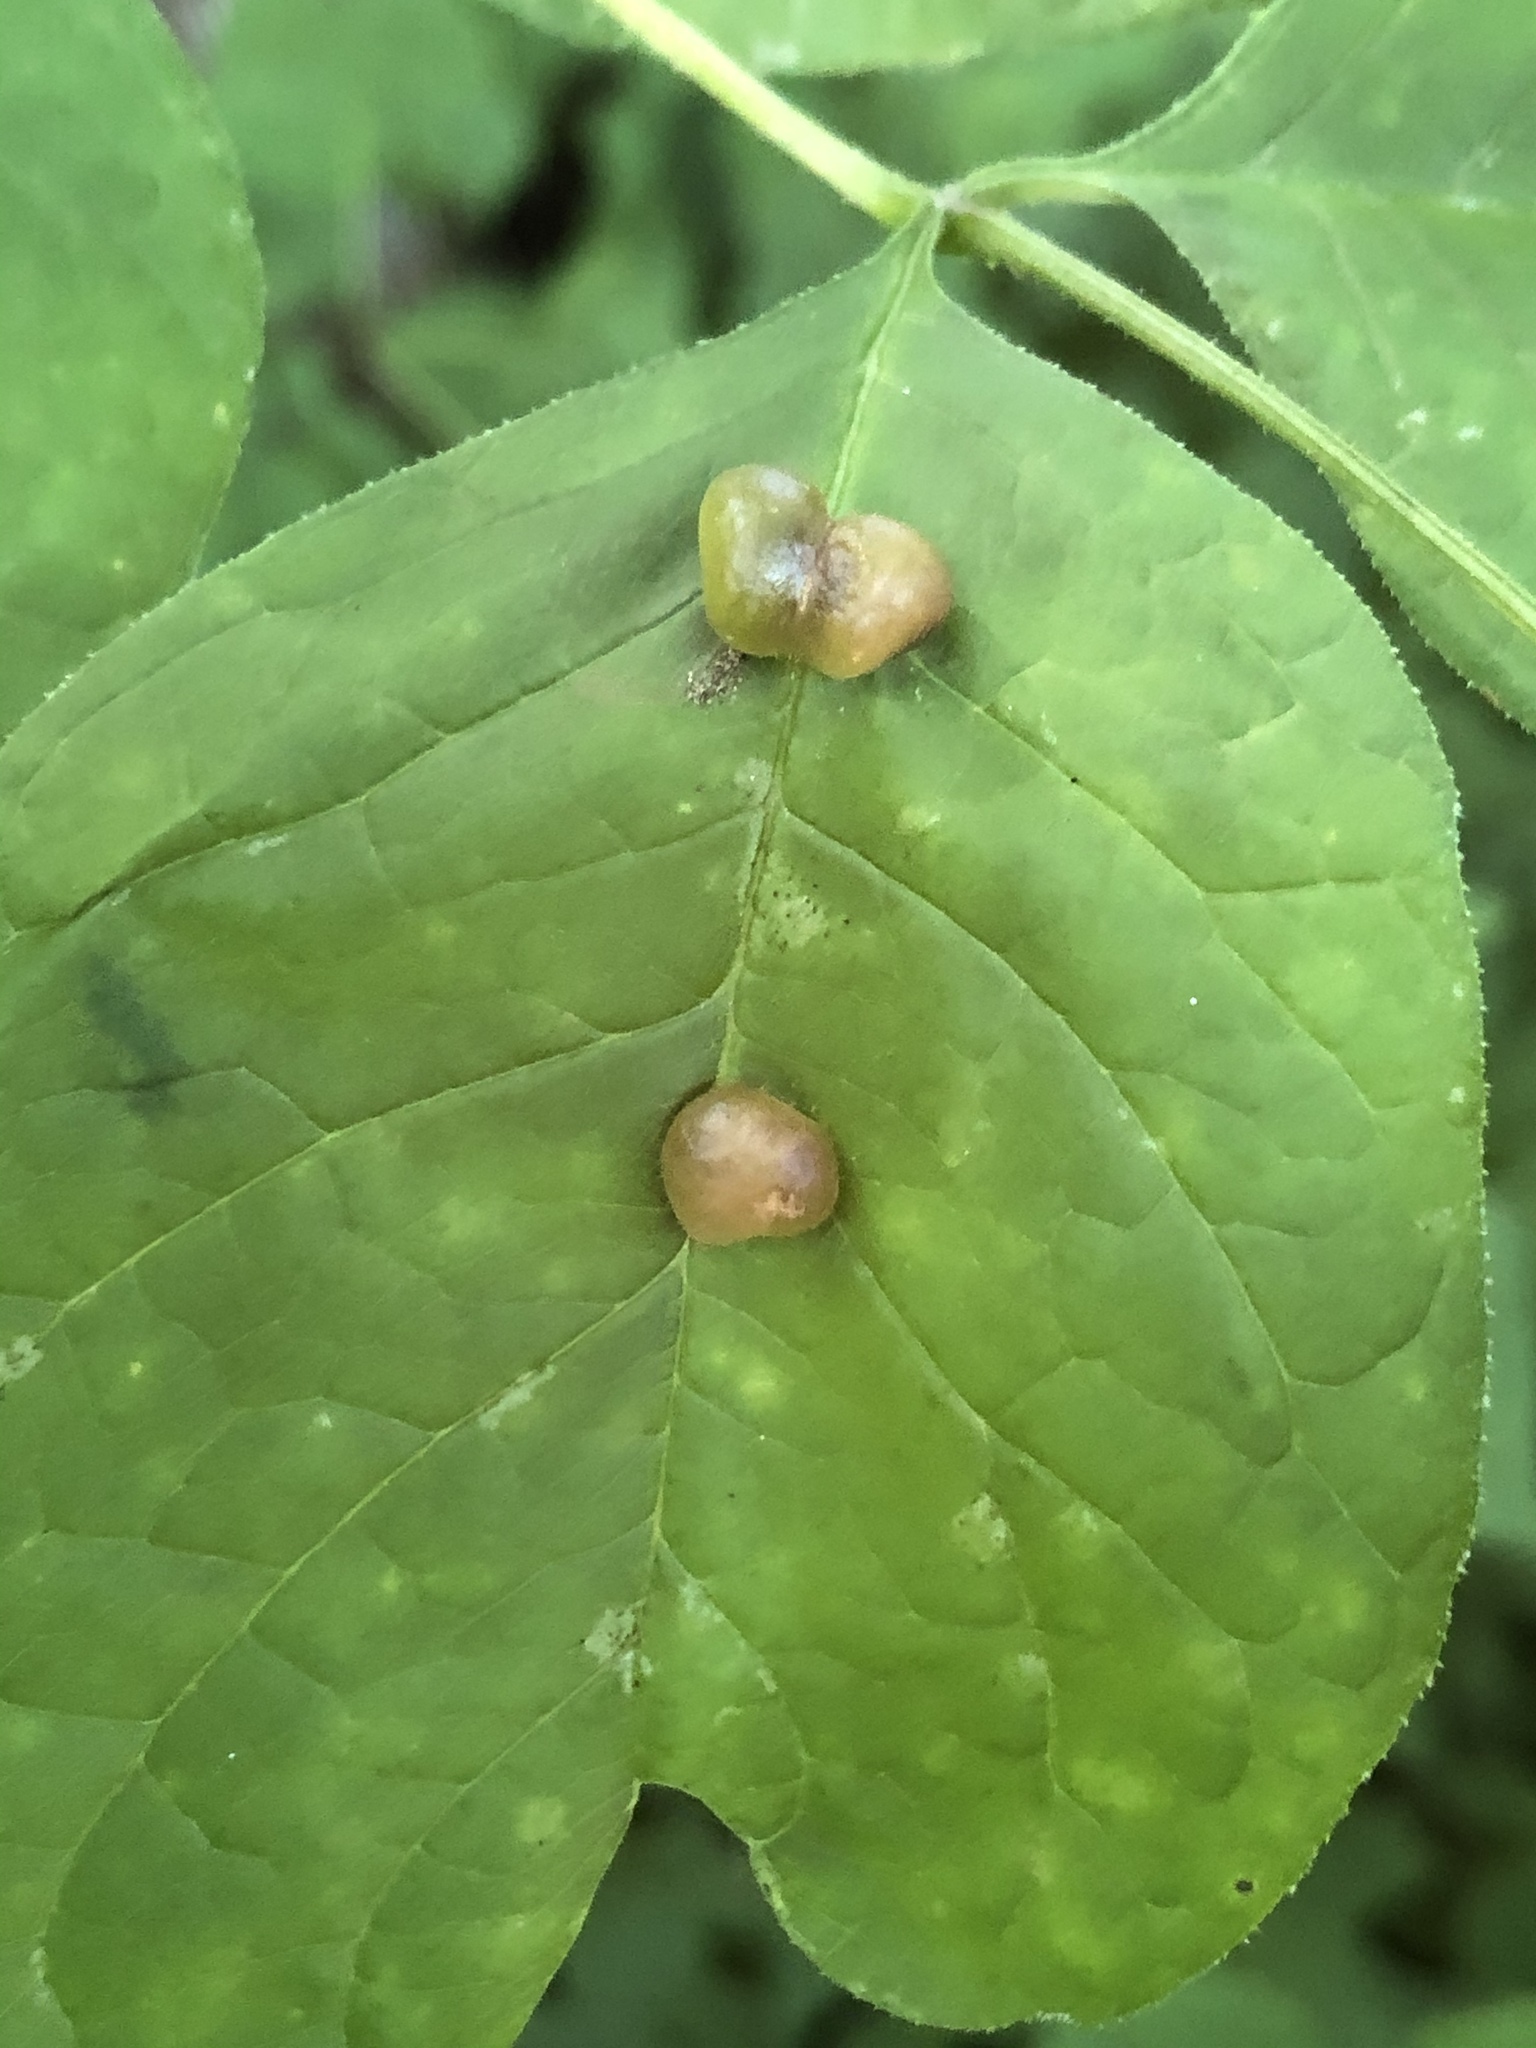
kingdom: Animalia
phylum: Arthropoda
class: Insecta
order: Diptera
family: Cecidomyiidae
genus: Dasineura
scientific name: Dasineura pellex
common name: Ash bullet gall midge
